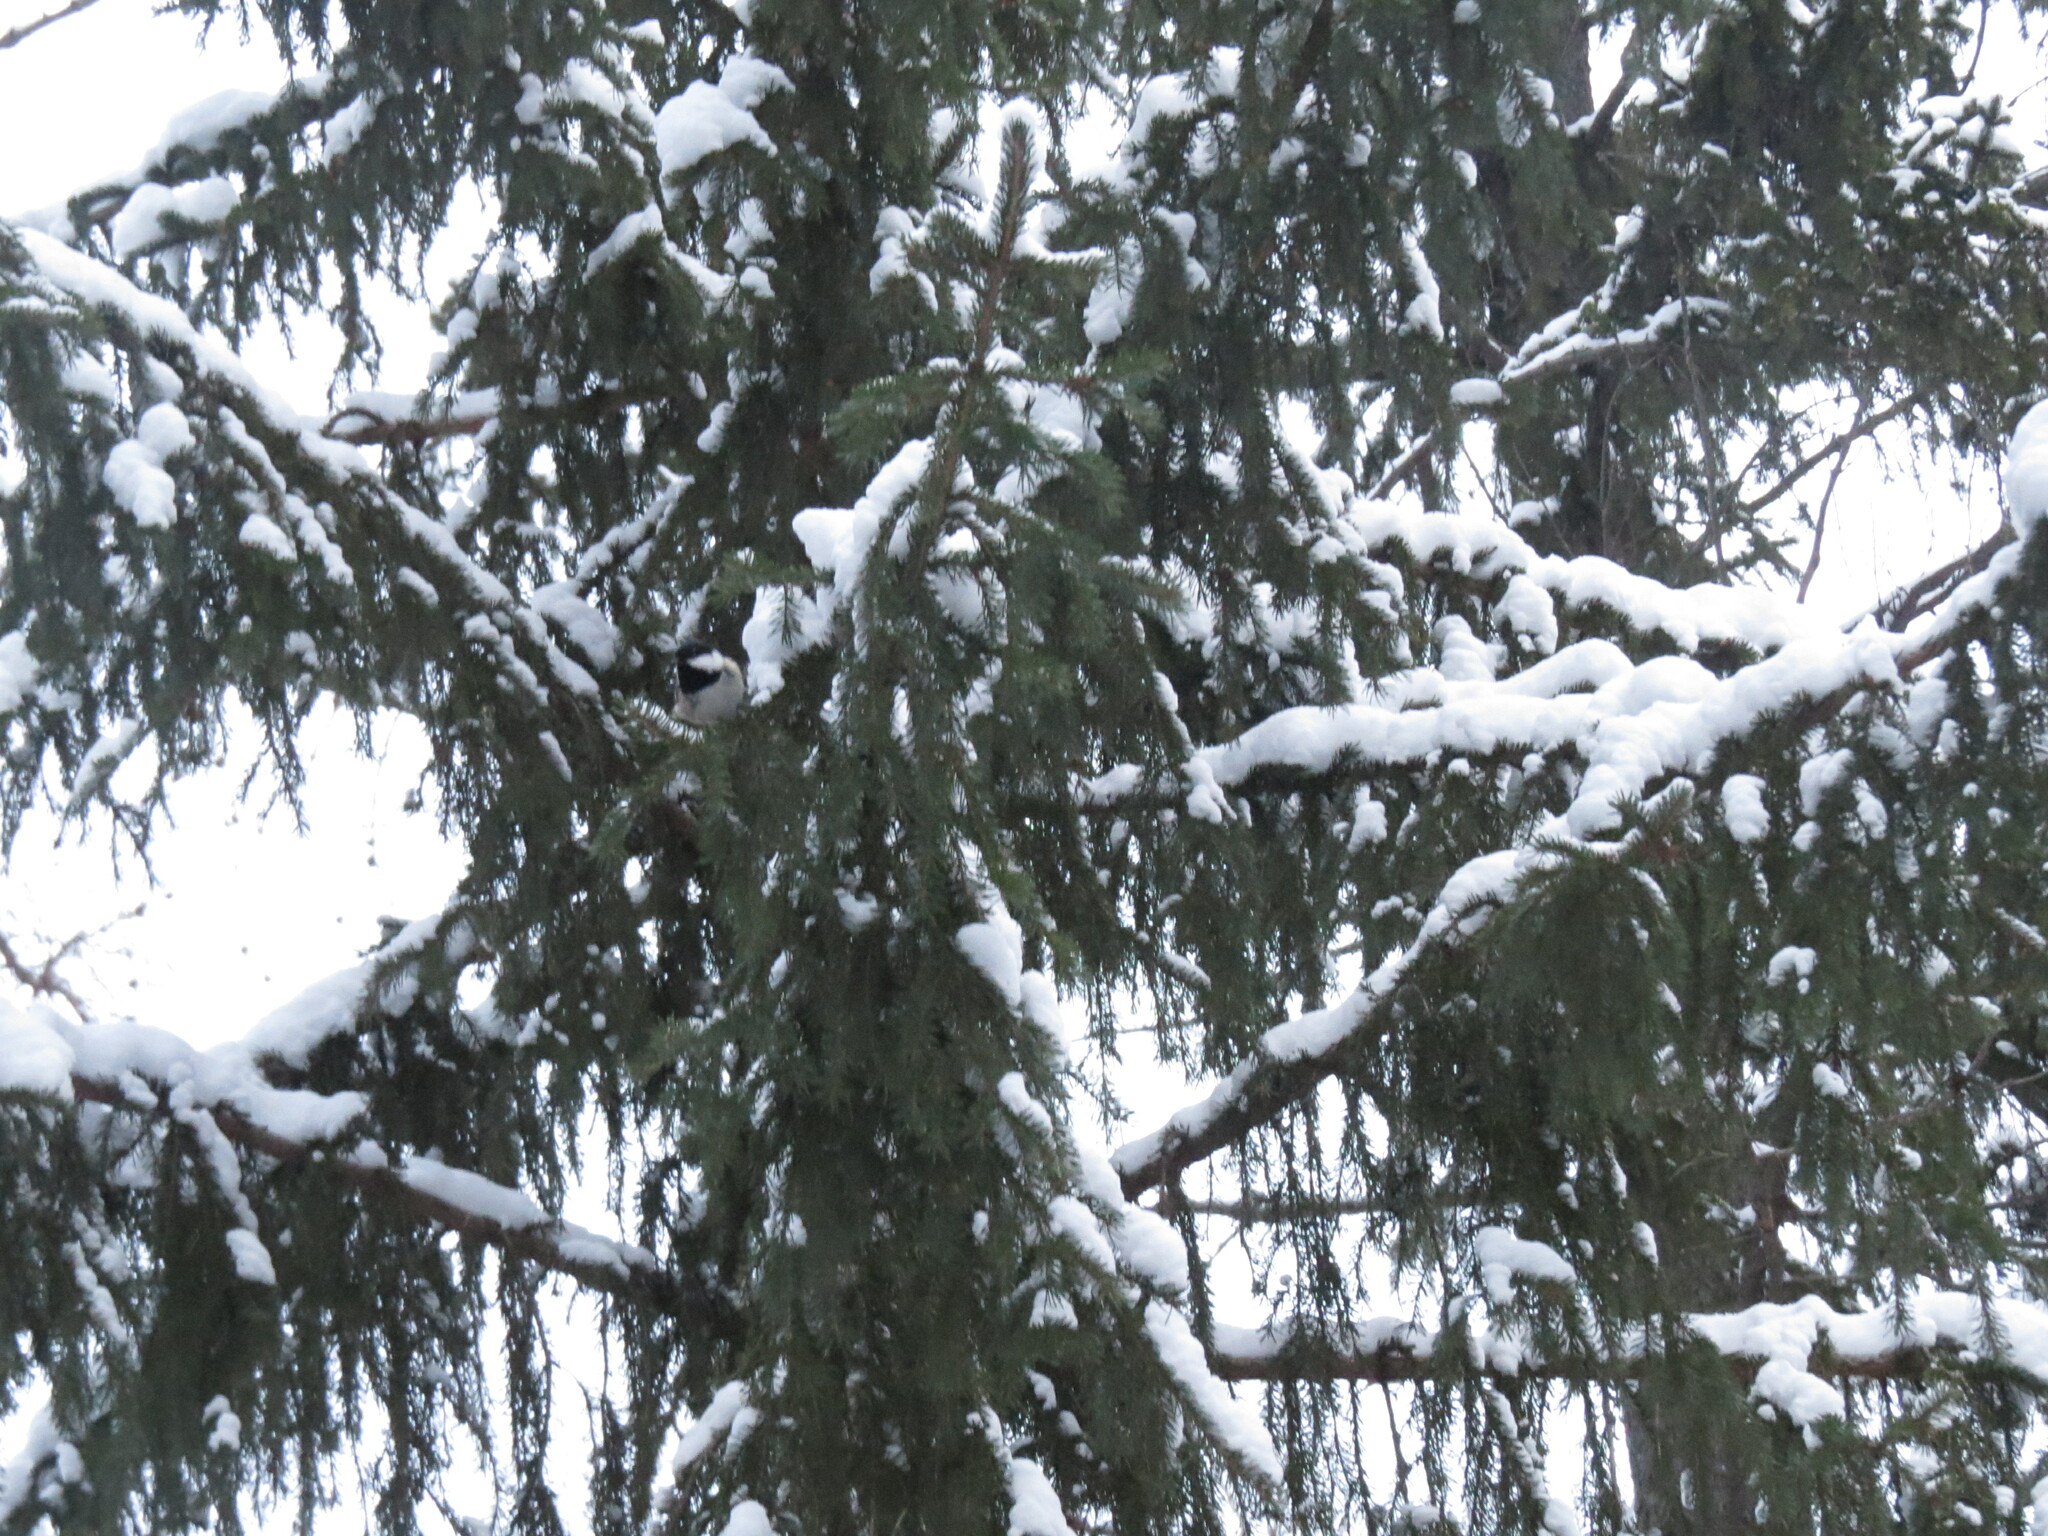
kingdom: Animalia
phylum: Chordata
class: Aves
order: Passeriformes
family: Paridae
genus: Periparus
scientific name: Periparus ater
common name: Coal tit
